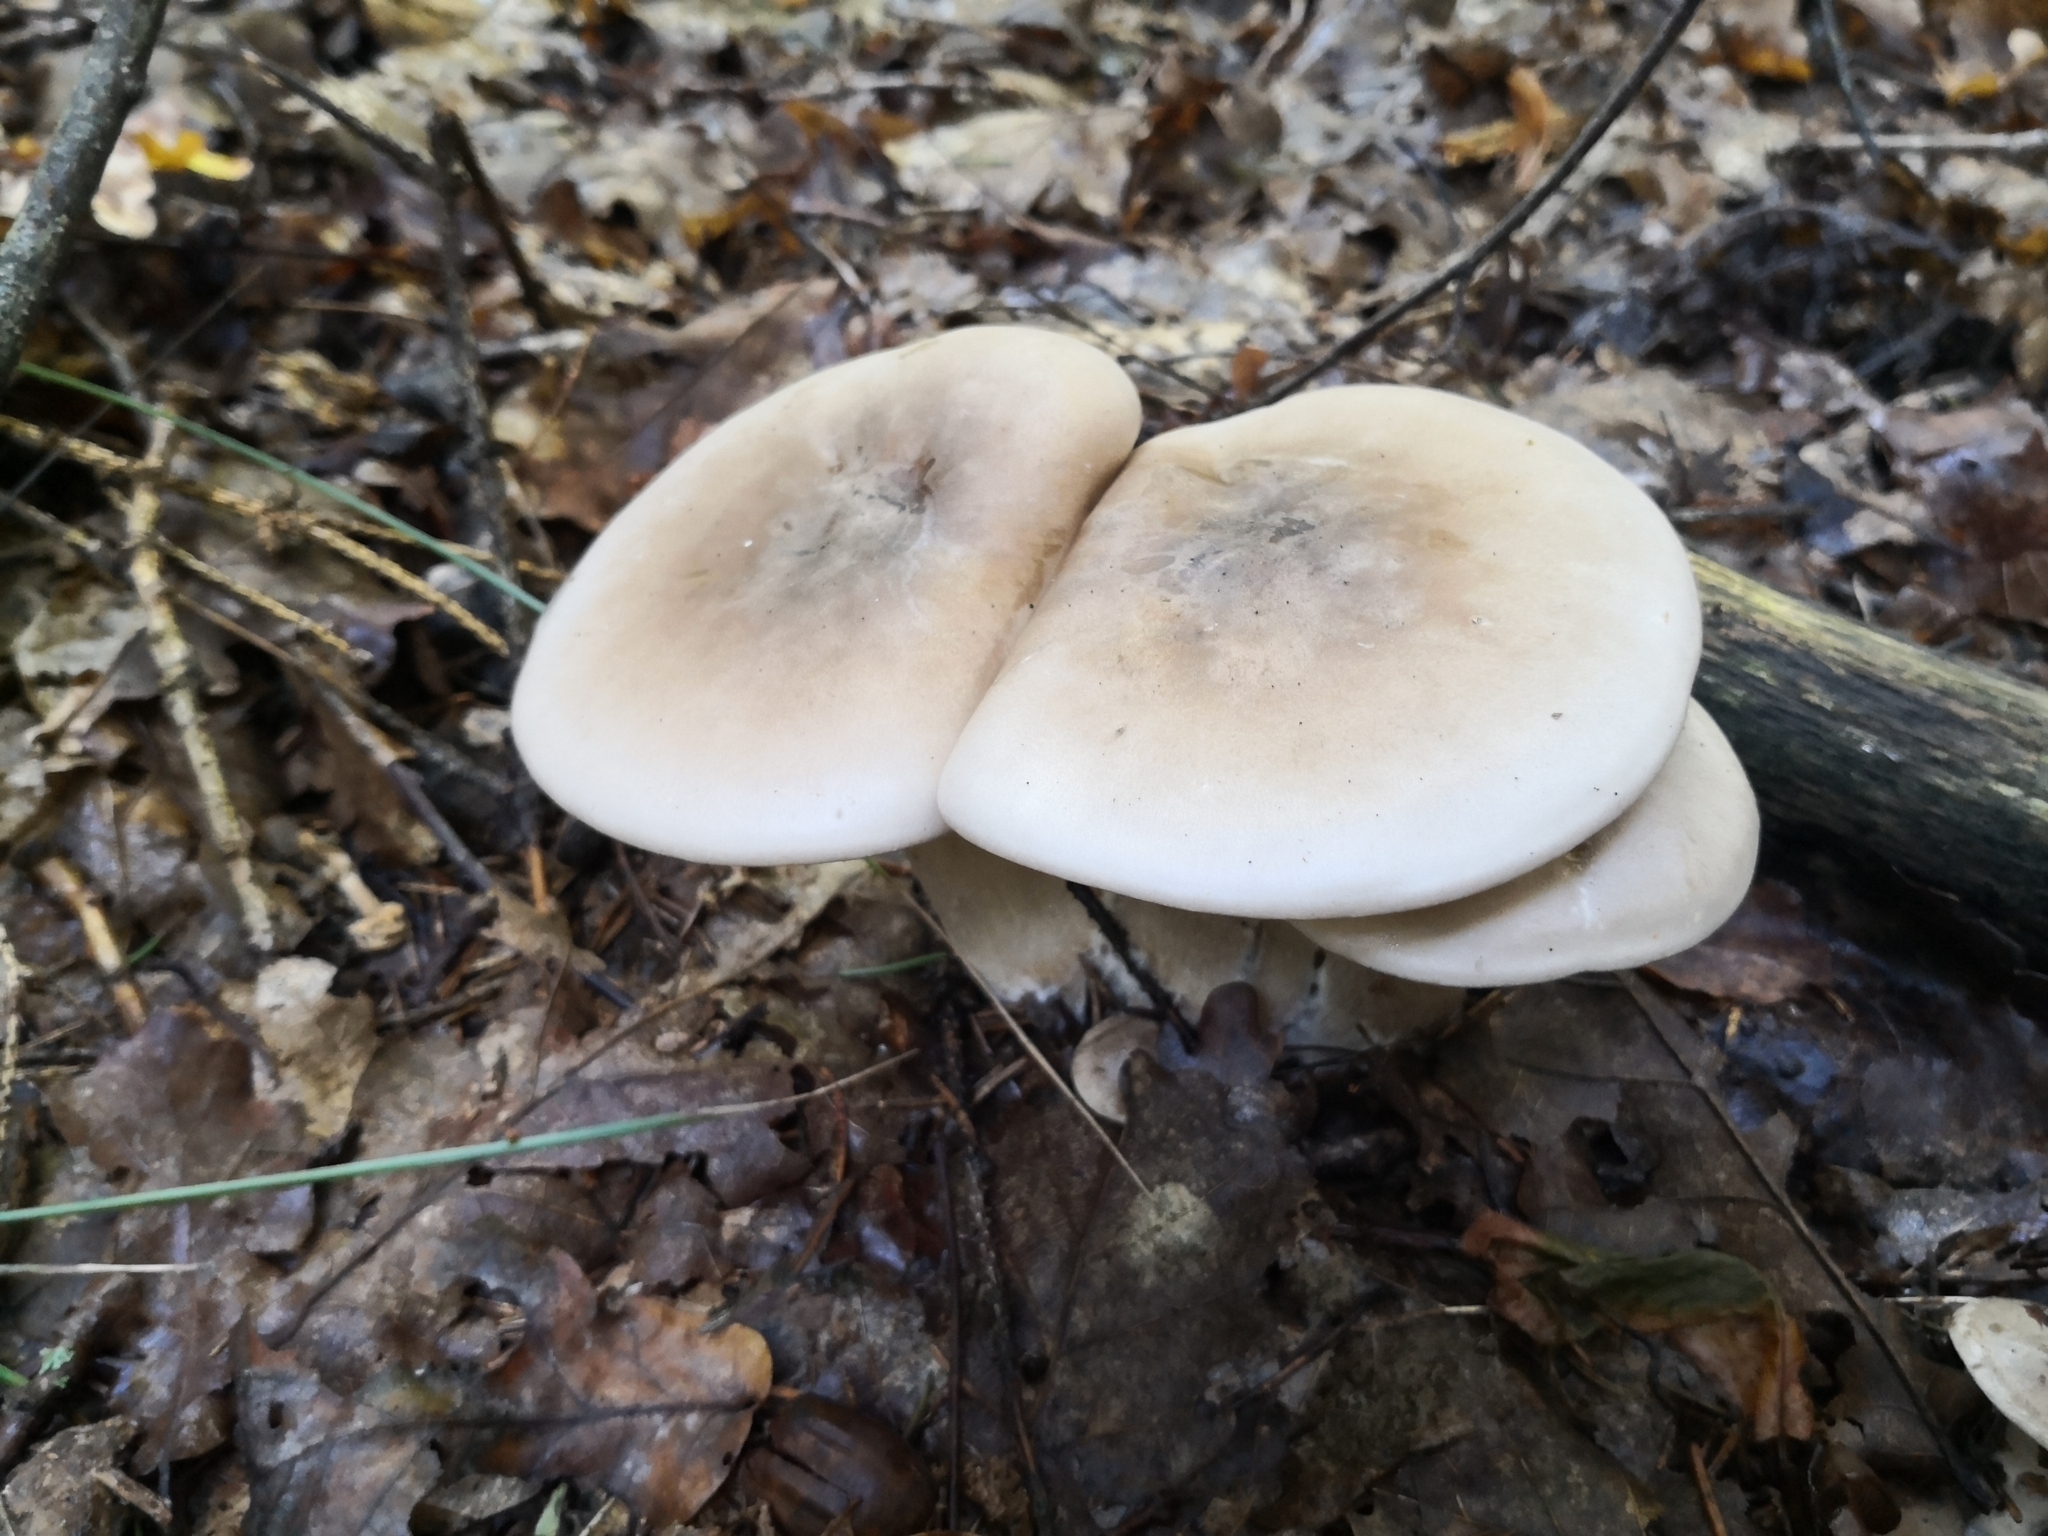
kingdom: Fungi
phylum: Basidiomycota
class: Agaricomycetes
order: Agaricales
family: Tricholomataceae
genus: Clitocybe
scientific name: Clitocybe nebularis
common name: Clouded agaric
